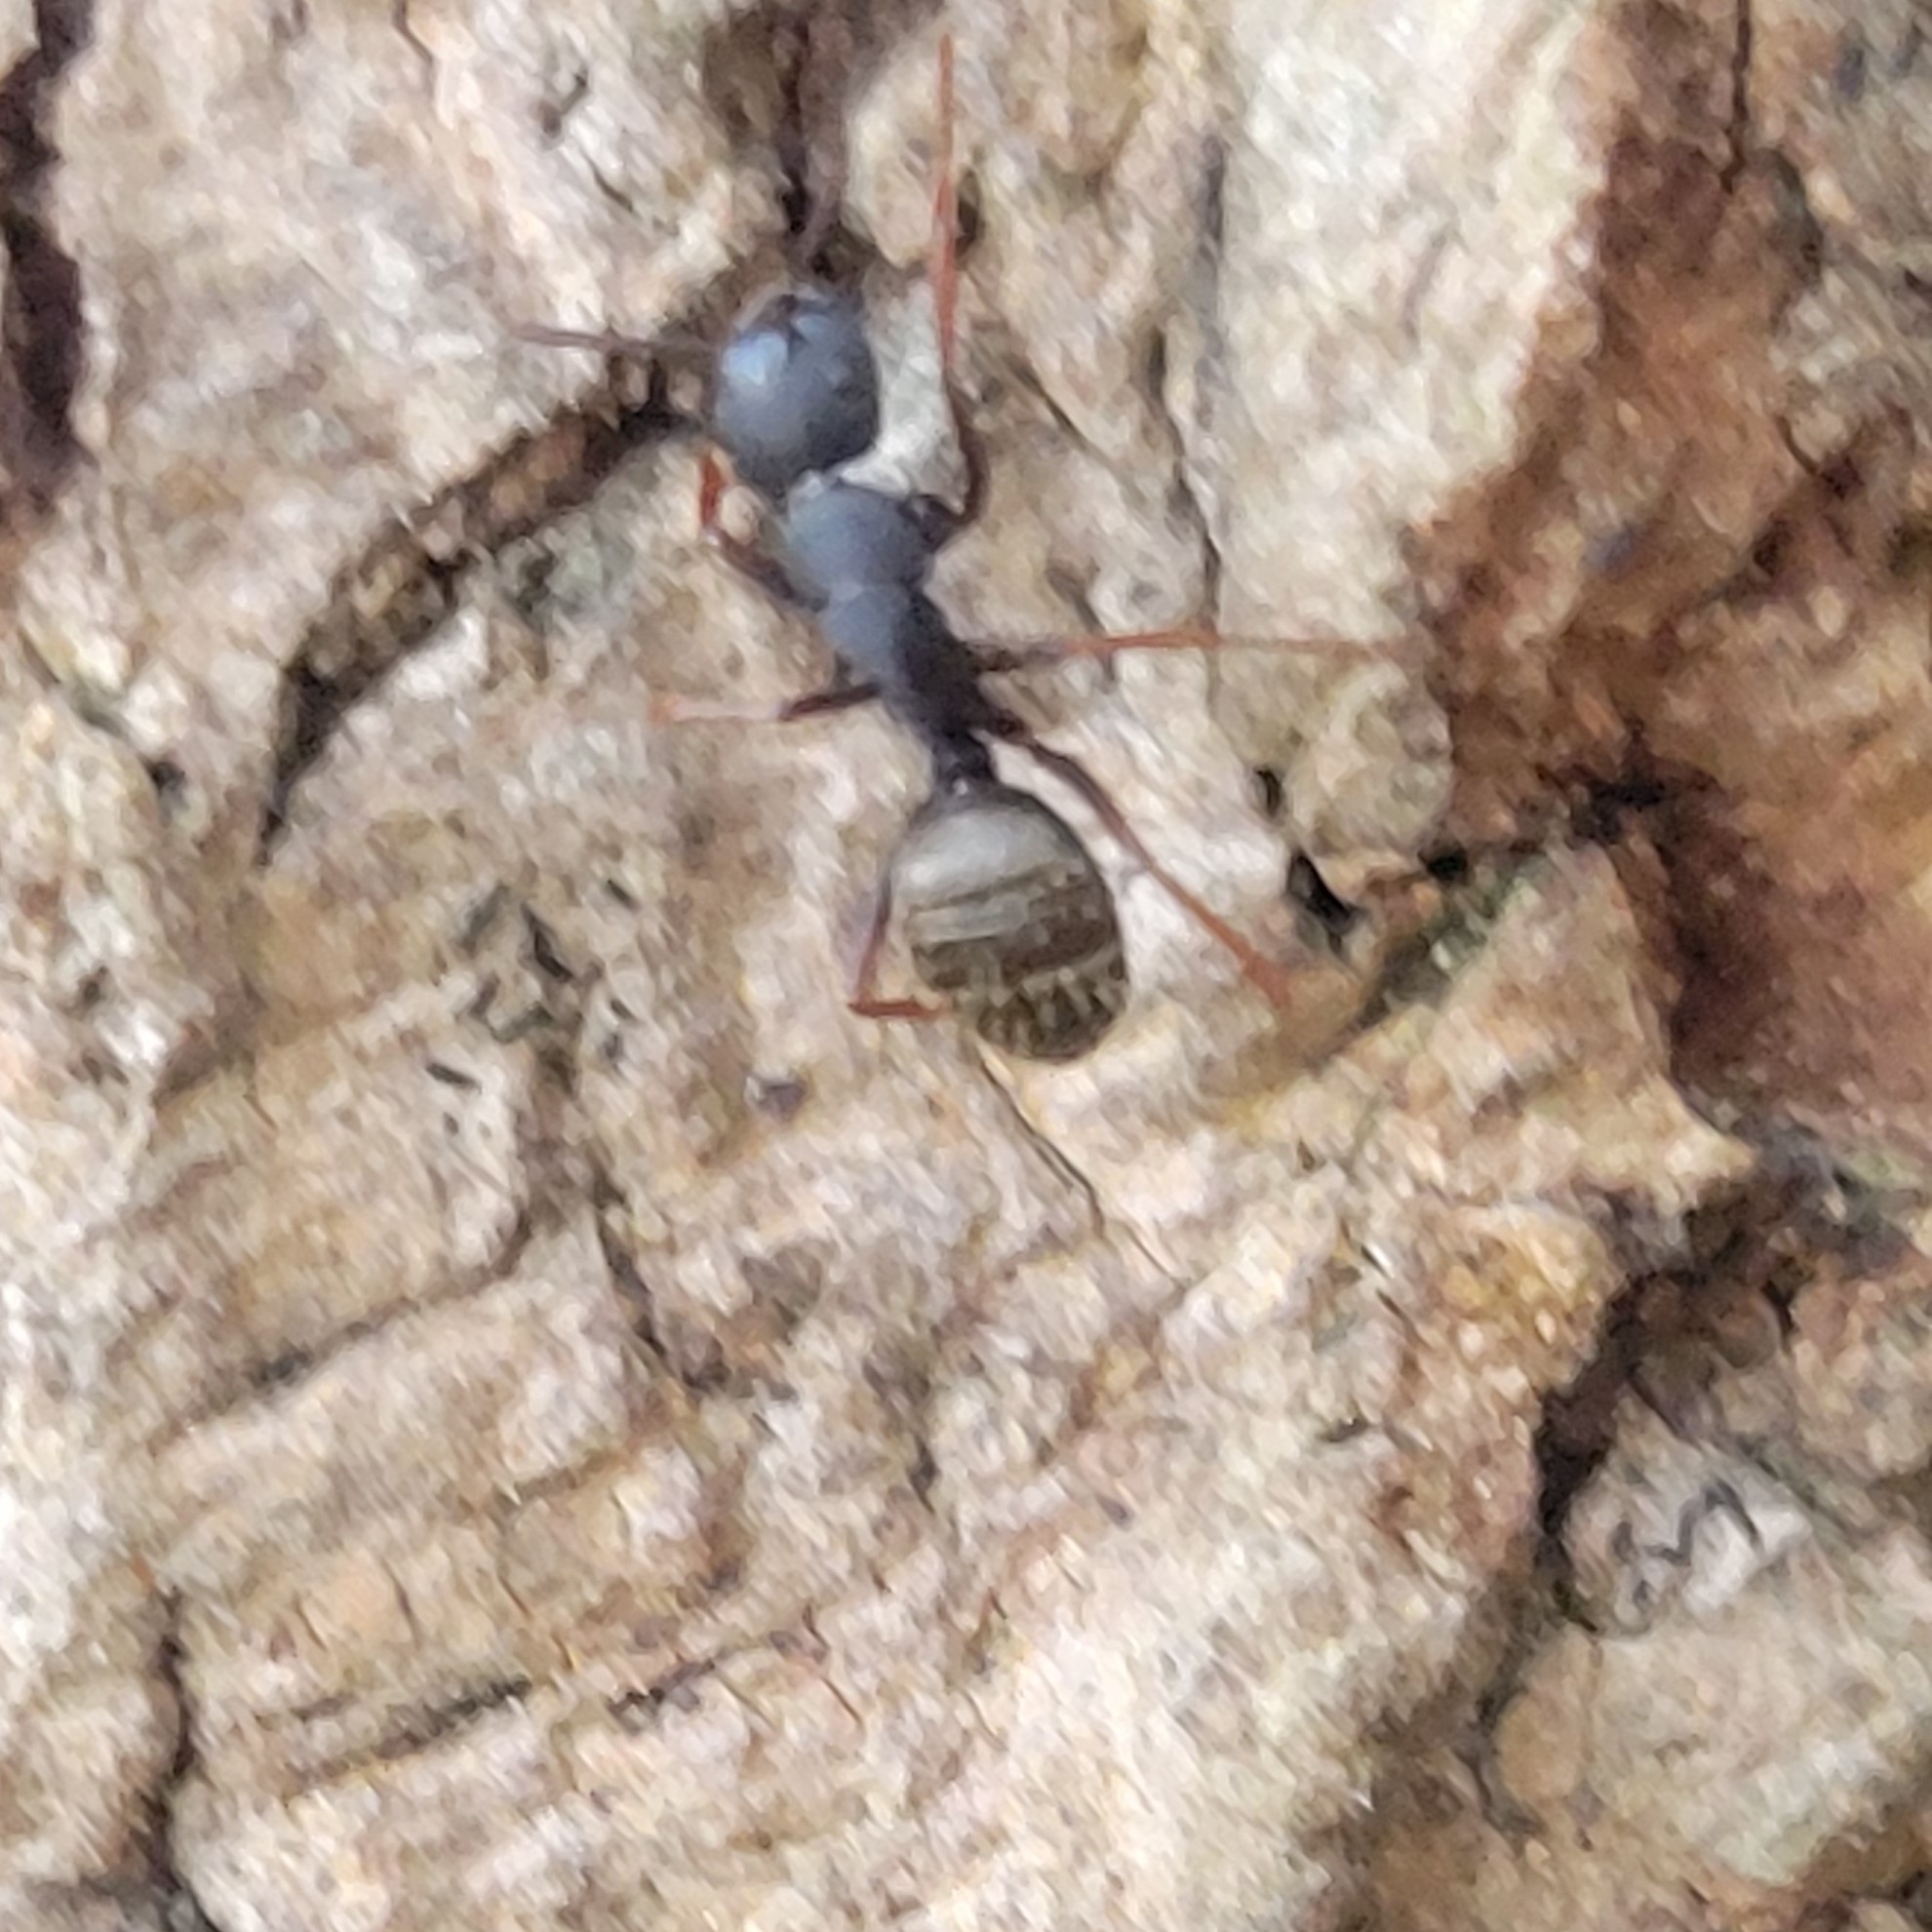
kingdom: Animalia
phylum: Arthropoda
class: Insecta
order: Hymenoptera
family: Formicidae
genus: Camponotus
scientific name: Camponotus modoc
